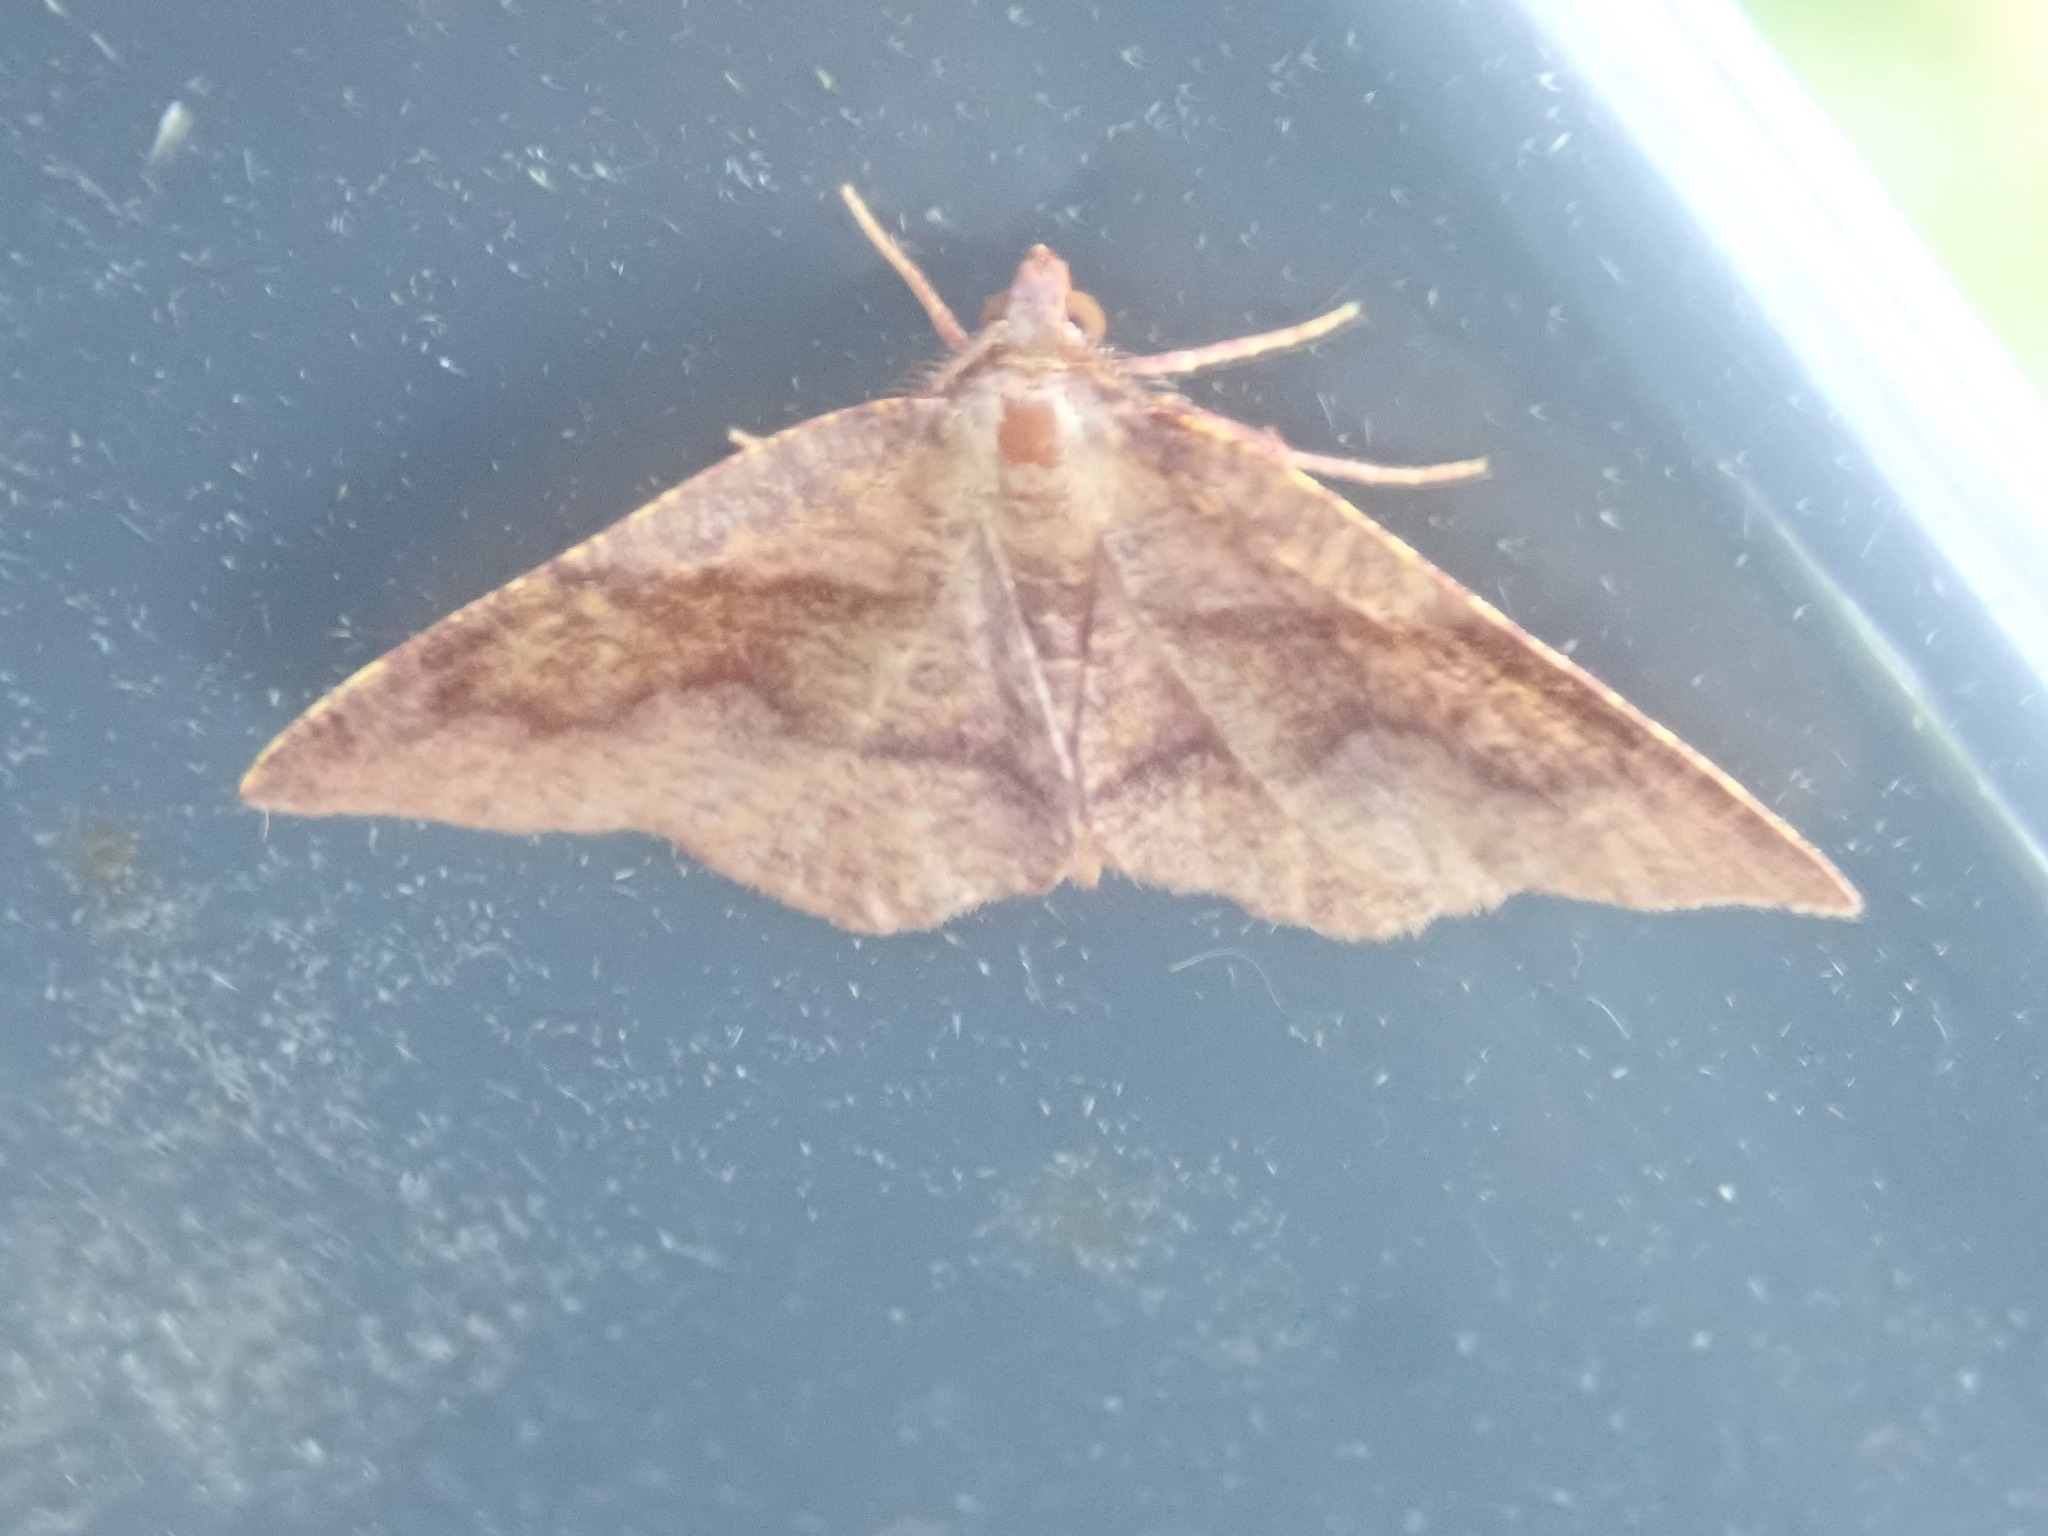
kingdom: Animalia
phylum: Arthropoda
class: Insecta
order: Lepidoptera
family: Geometridae
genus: Plagodis
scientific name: Plagodis pulveraria
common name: Barred umber
